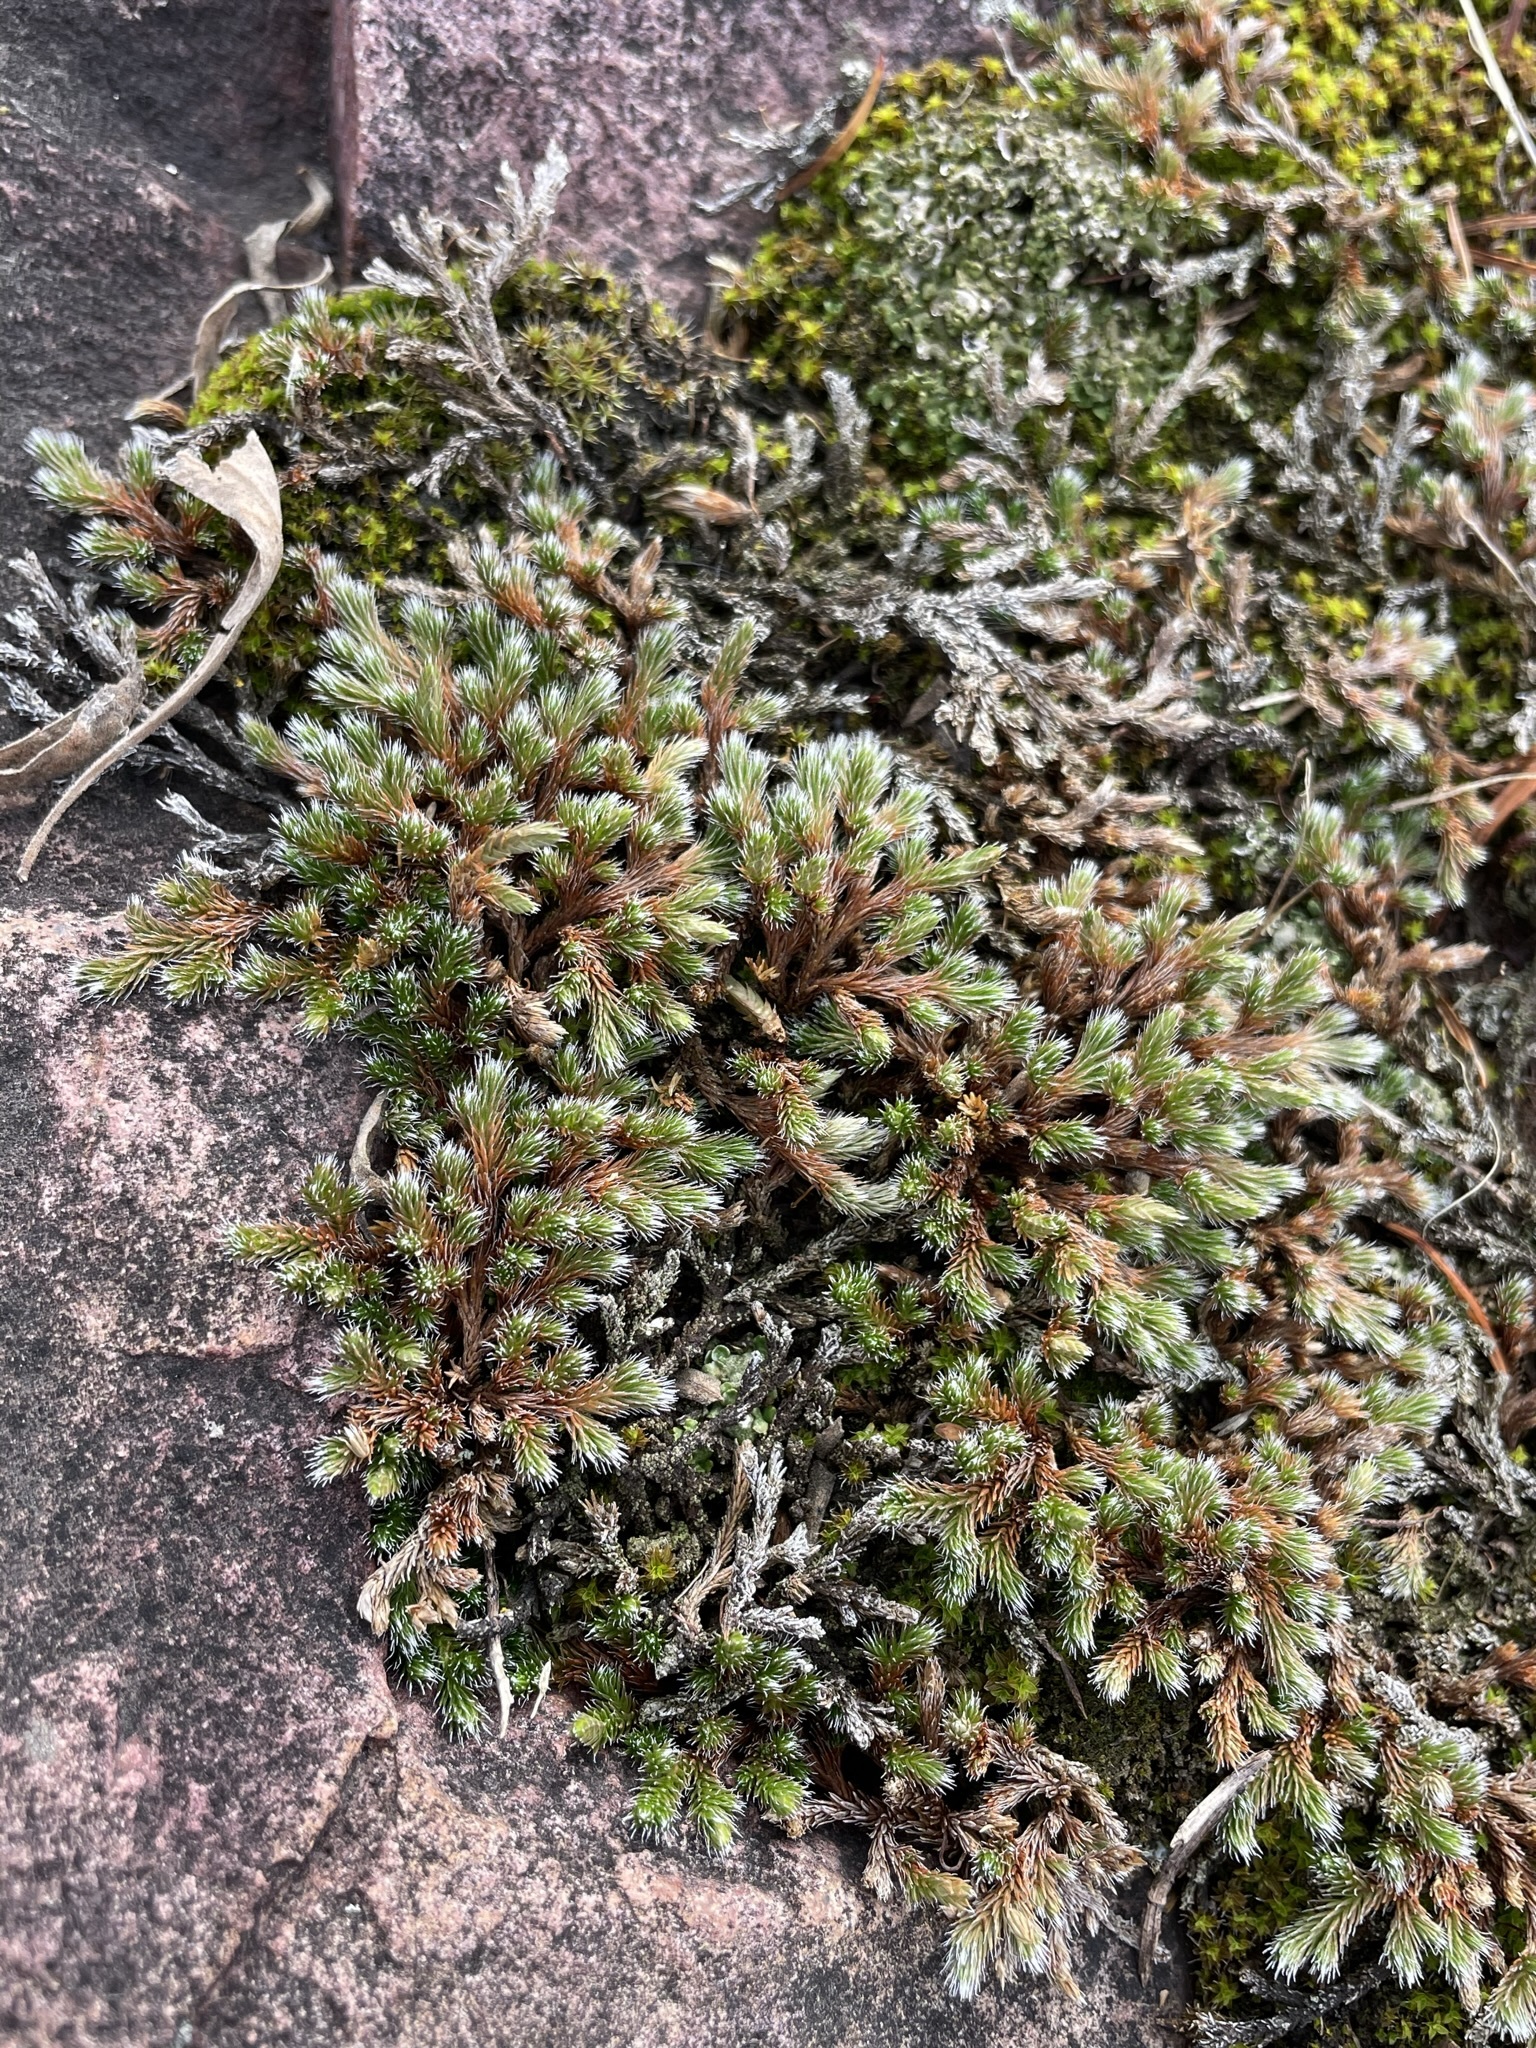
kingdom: Plantae
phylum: Tracheophyta
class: Lycopodiopsida
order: Selaginellales
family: Selaginellaceae
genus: Selaginella
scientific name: Selaginella rupestris
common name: Dwarf spikemoss
